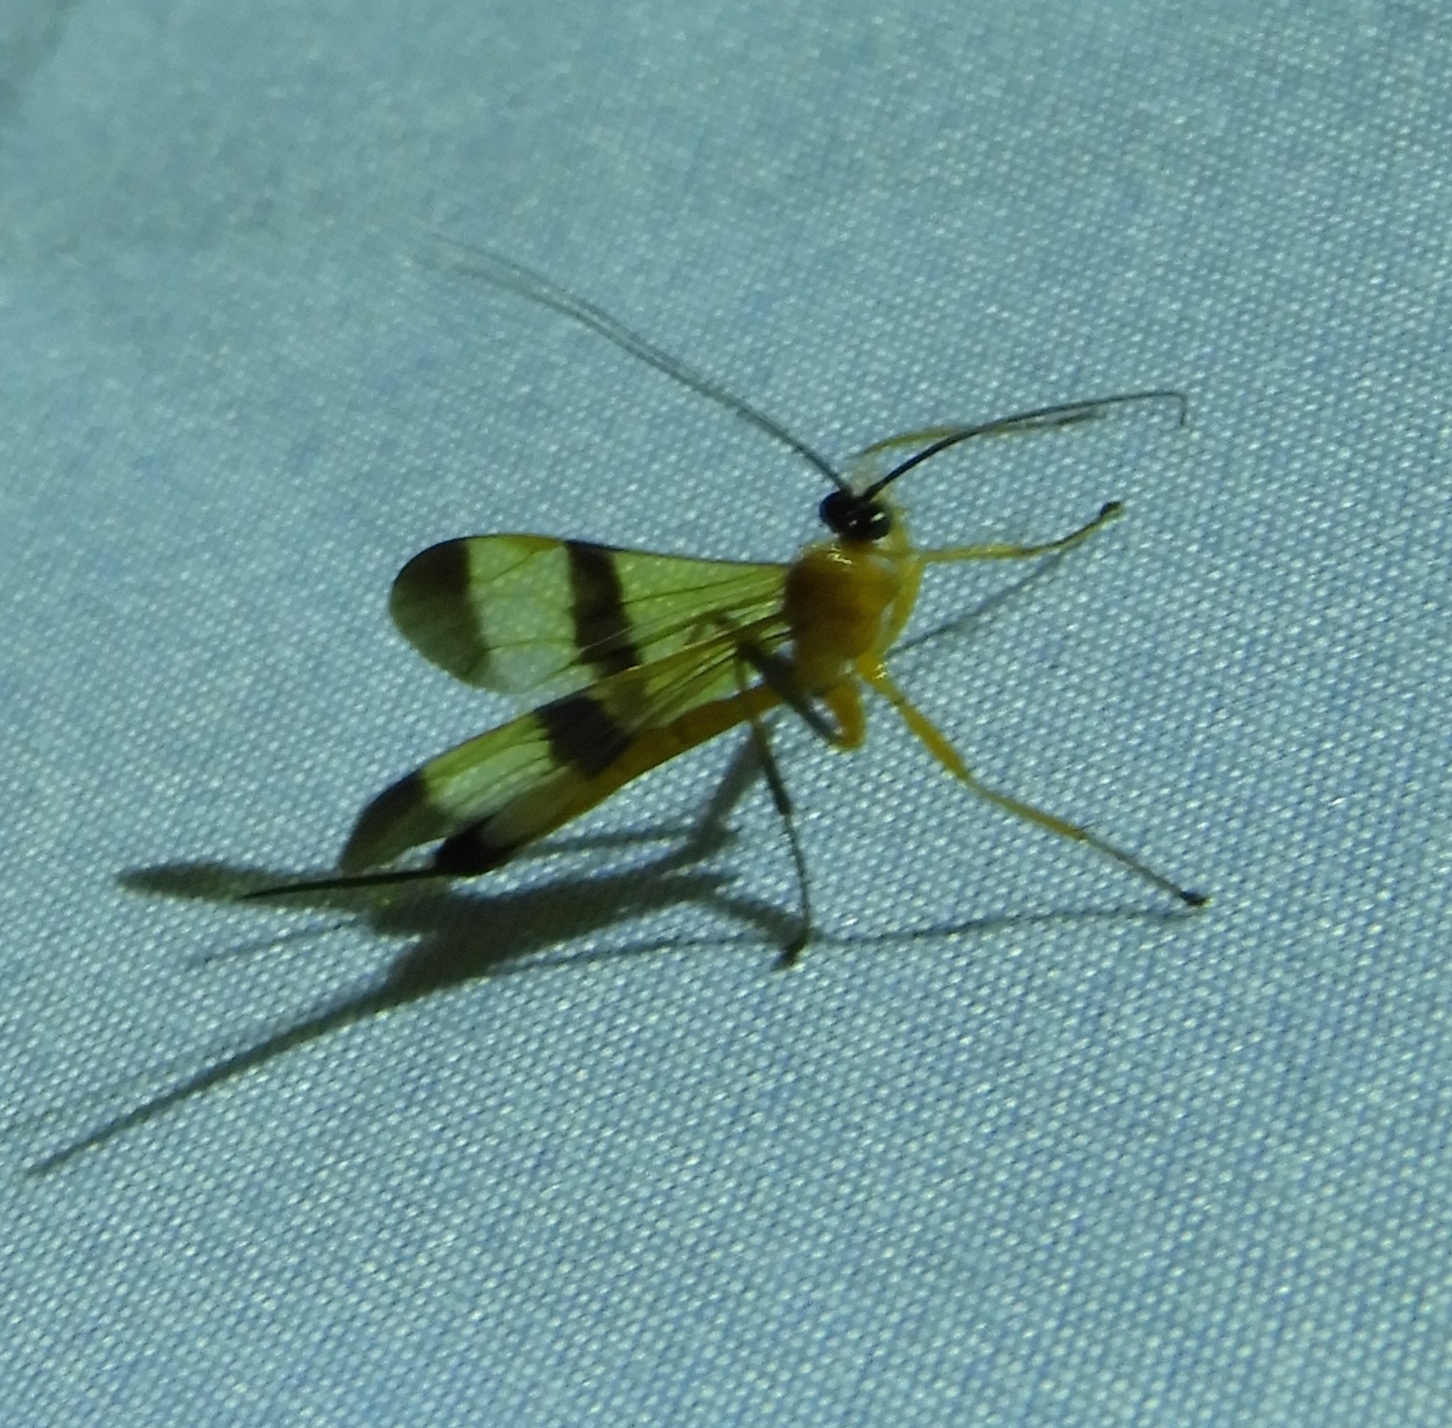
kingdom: Animalia
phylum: Arthropoda
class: Insecta
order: Hymenoptera
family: Ichneumonidae
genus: Acrotaphus
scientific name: Acrotaphus tibialis
